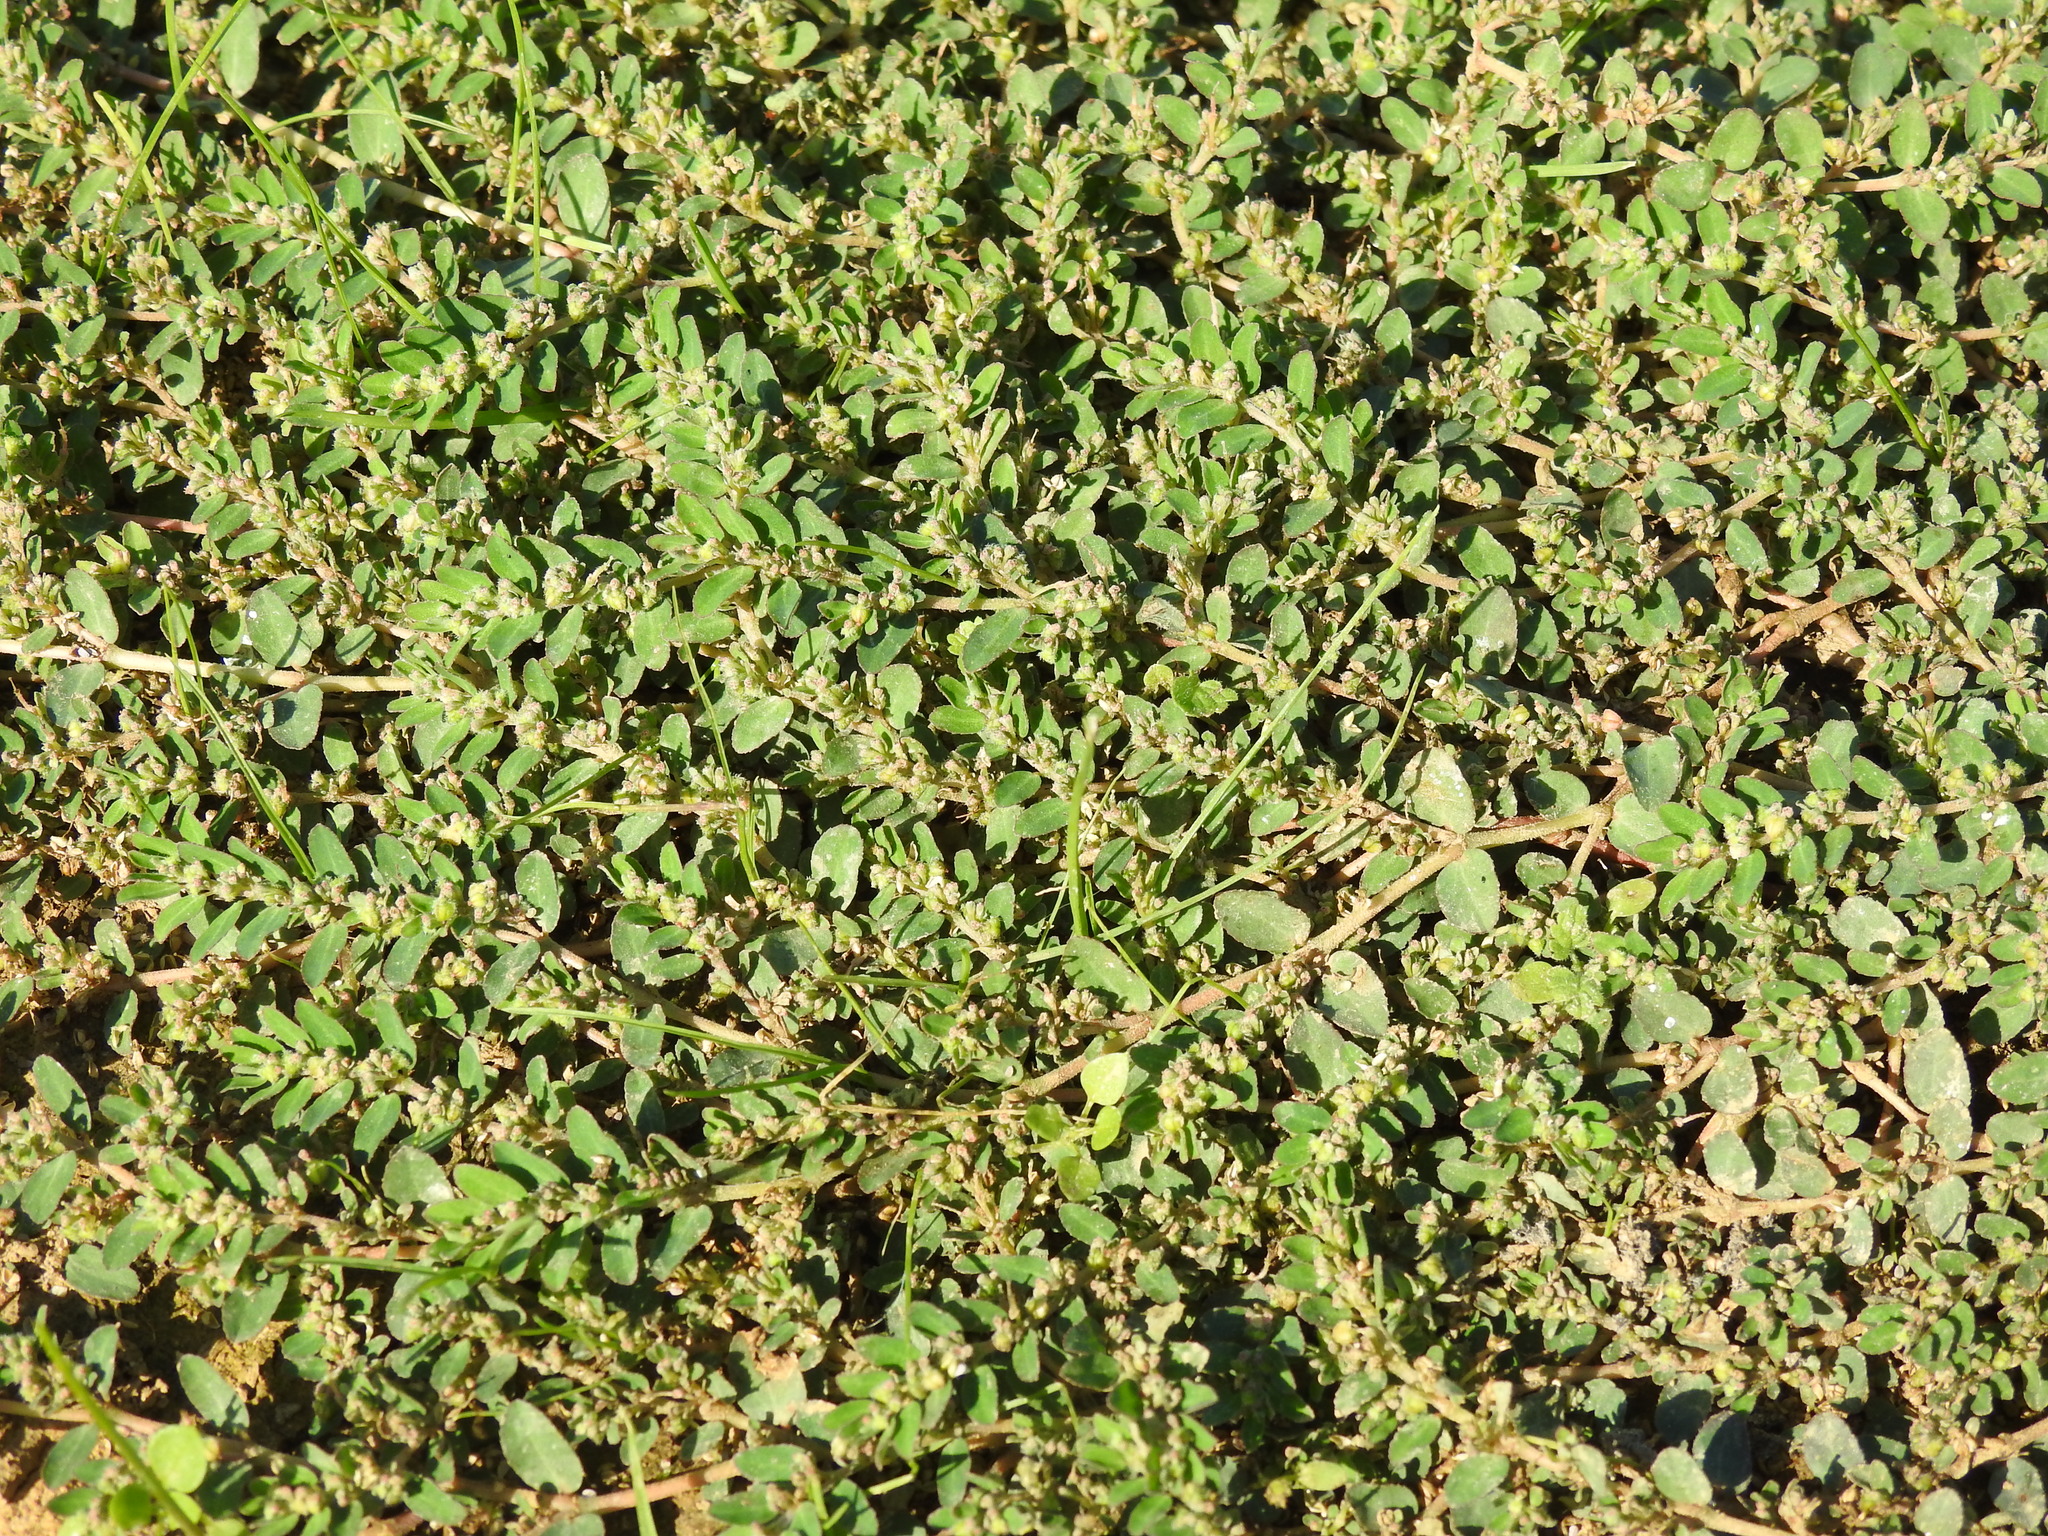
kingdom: Plantae
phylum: Tracheophyta
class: Magnoliopsida
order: Malpighiales
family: Euphorbiaceae
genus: Euphorbia
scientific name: Euphorbia prostrata
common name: Prostrate sandmat
